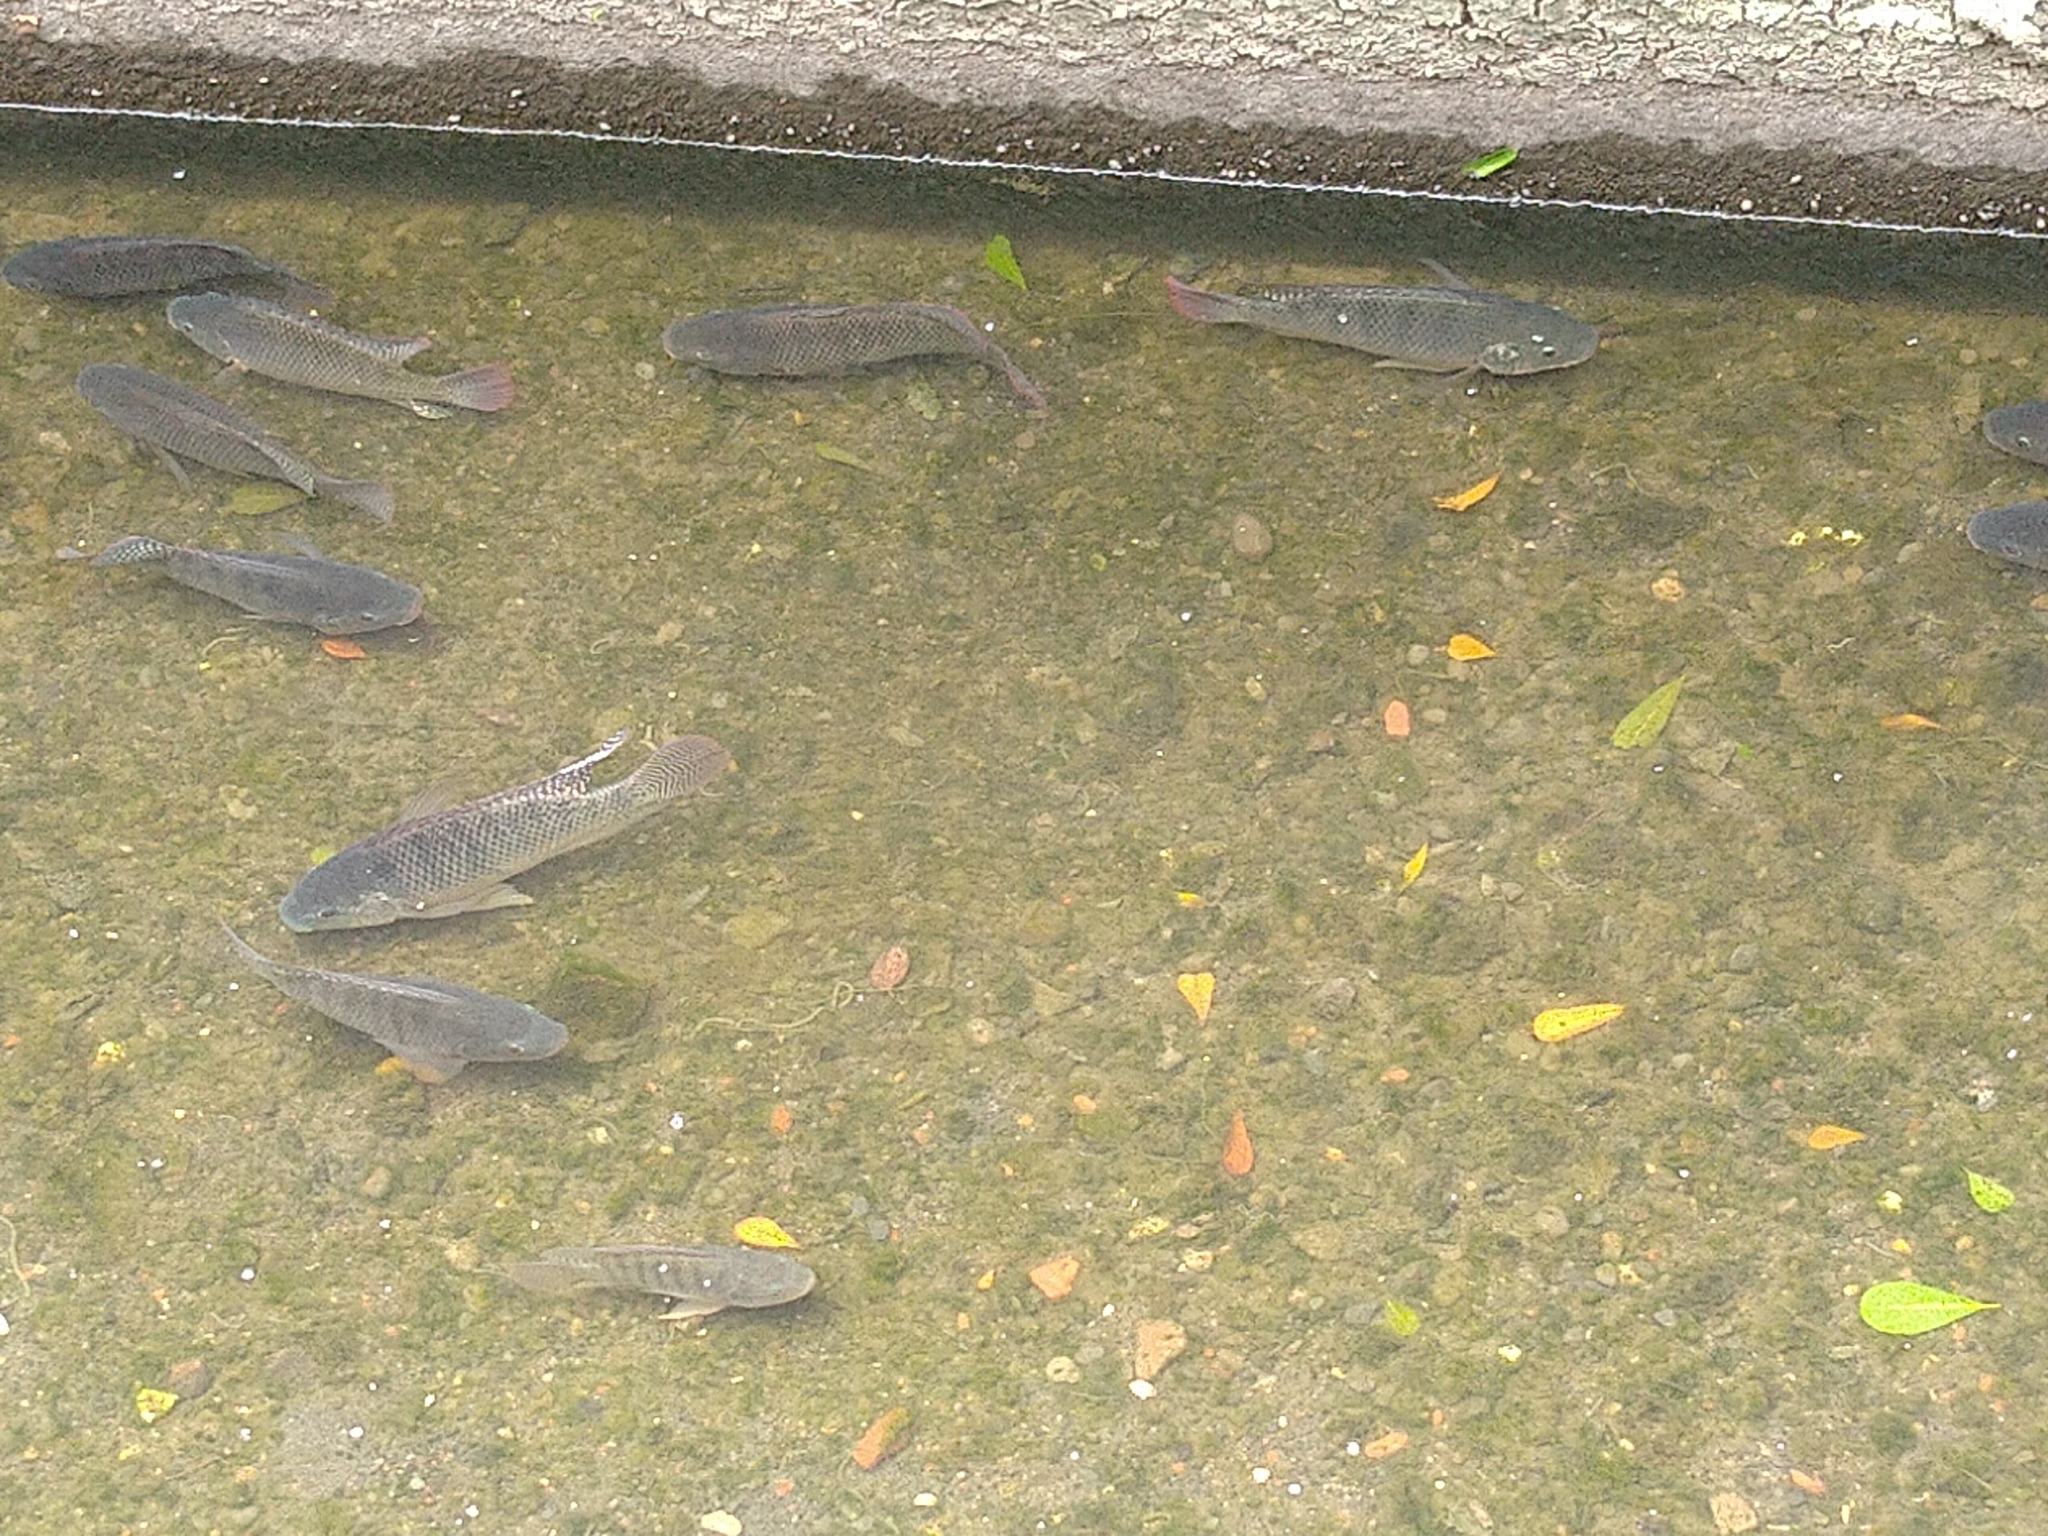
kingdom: Animalia
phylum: Chordata
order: Perciformes
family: Cichlidae
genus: Oreochromis
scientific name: Oreochromis niloticus
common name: Nile tilapia
